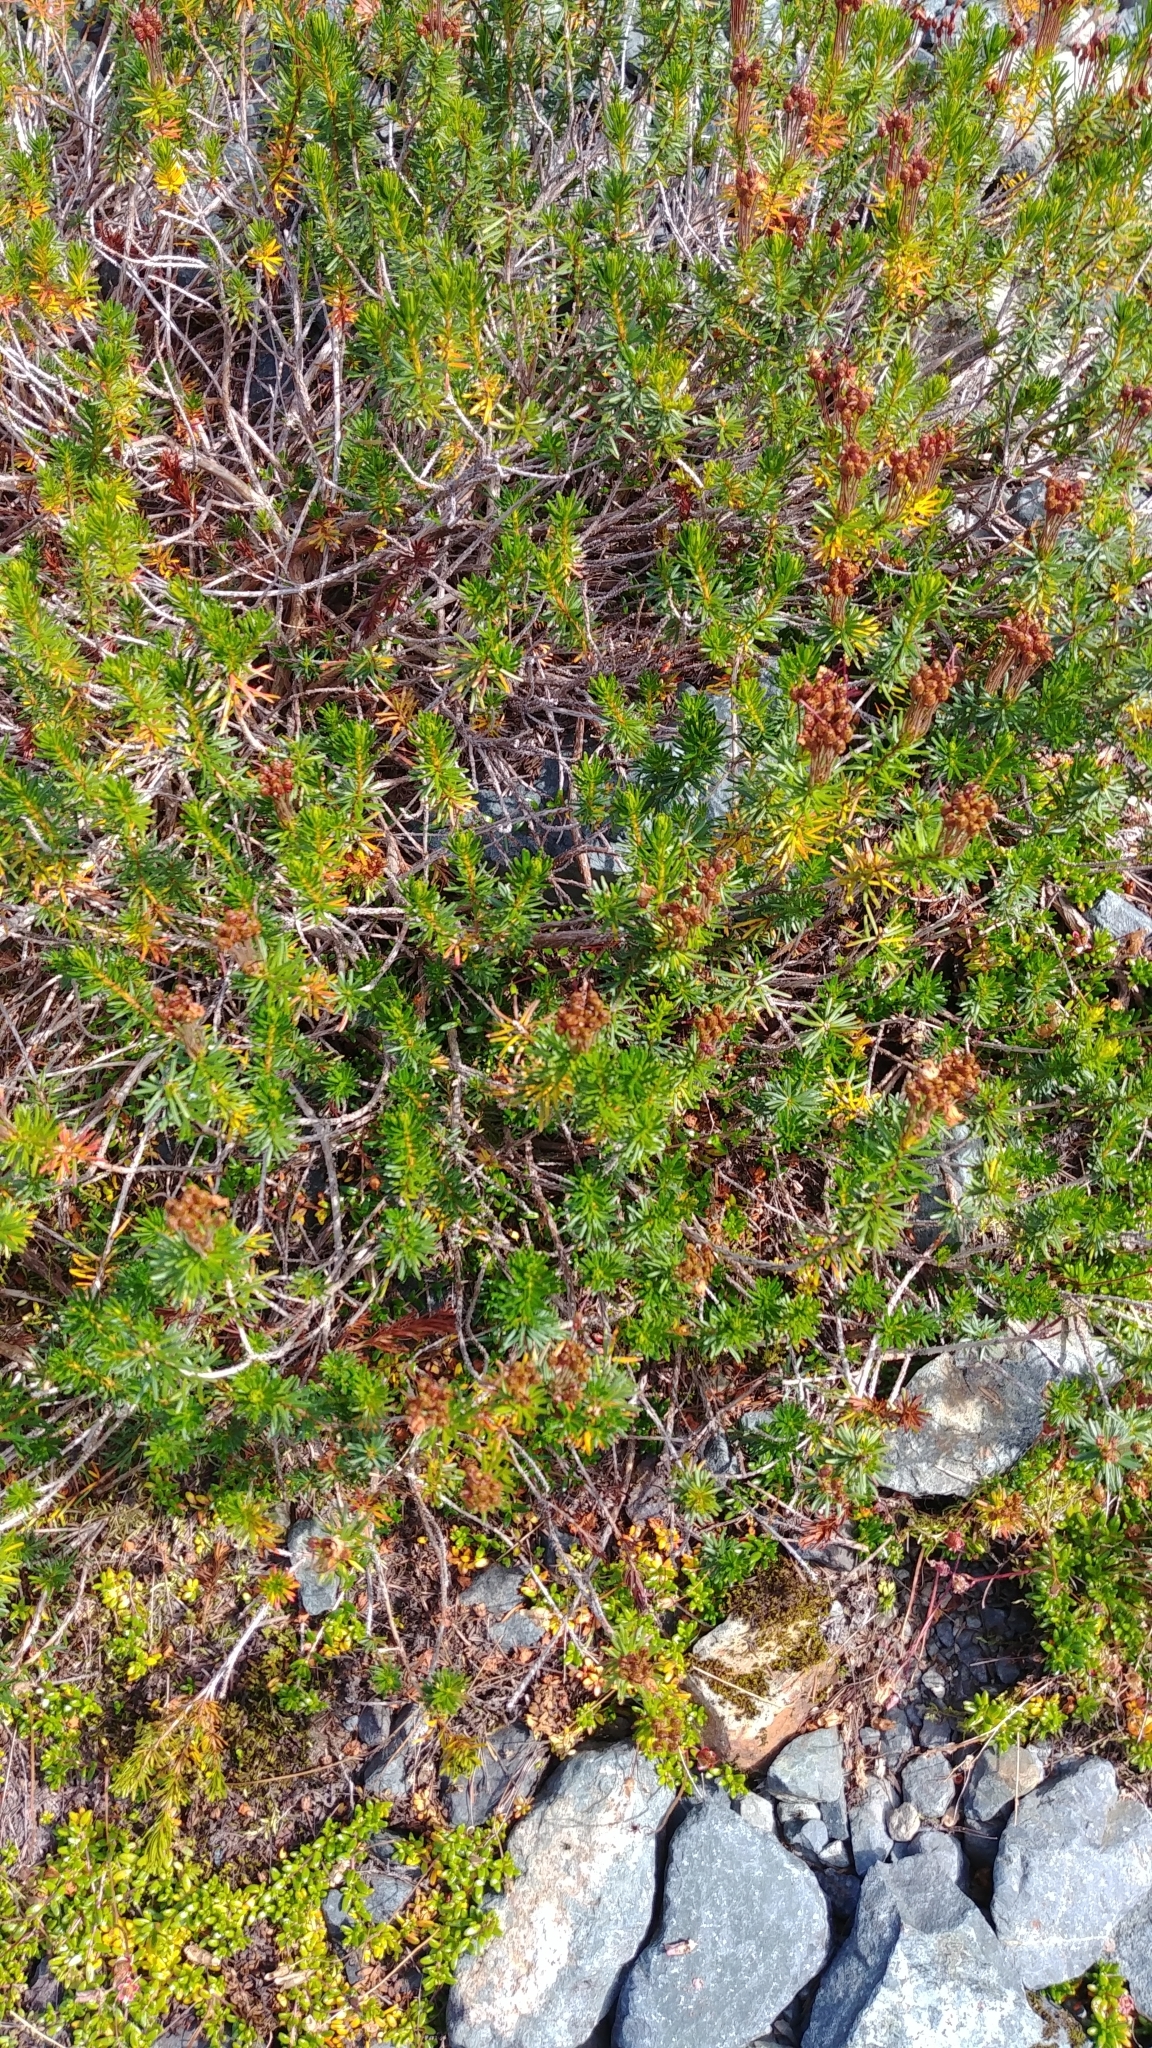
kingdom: Plantae
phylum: Tracheophyta
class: Magnoliopsida
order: Ericales
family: Ericaceae
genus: Phyllodoce
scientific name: Phyllodoce empetriformis
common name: Pink mountain heather
